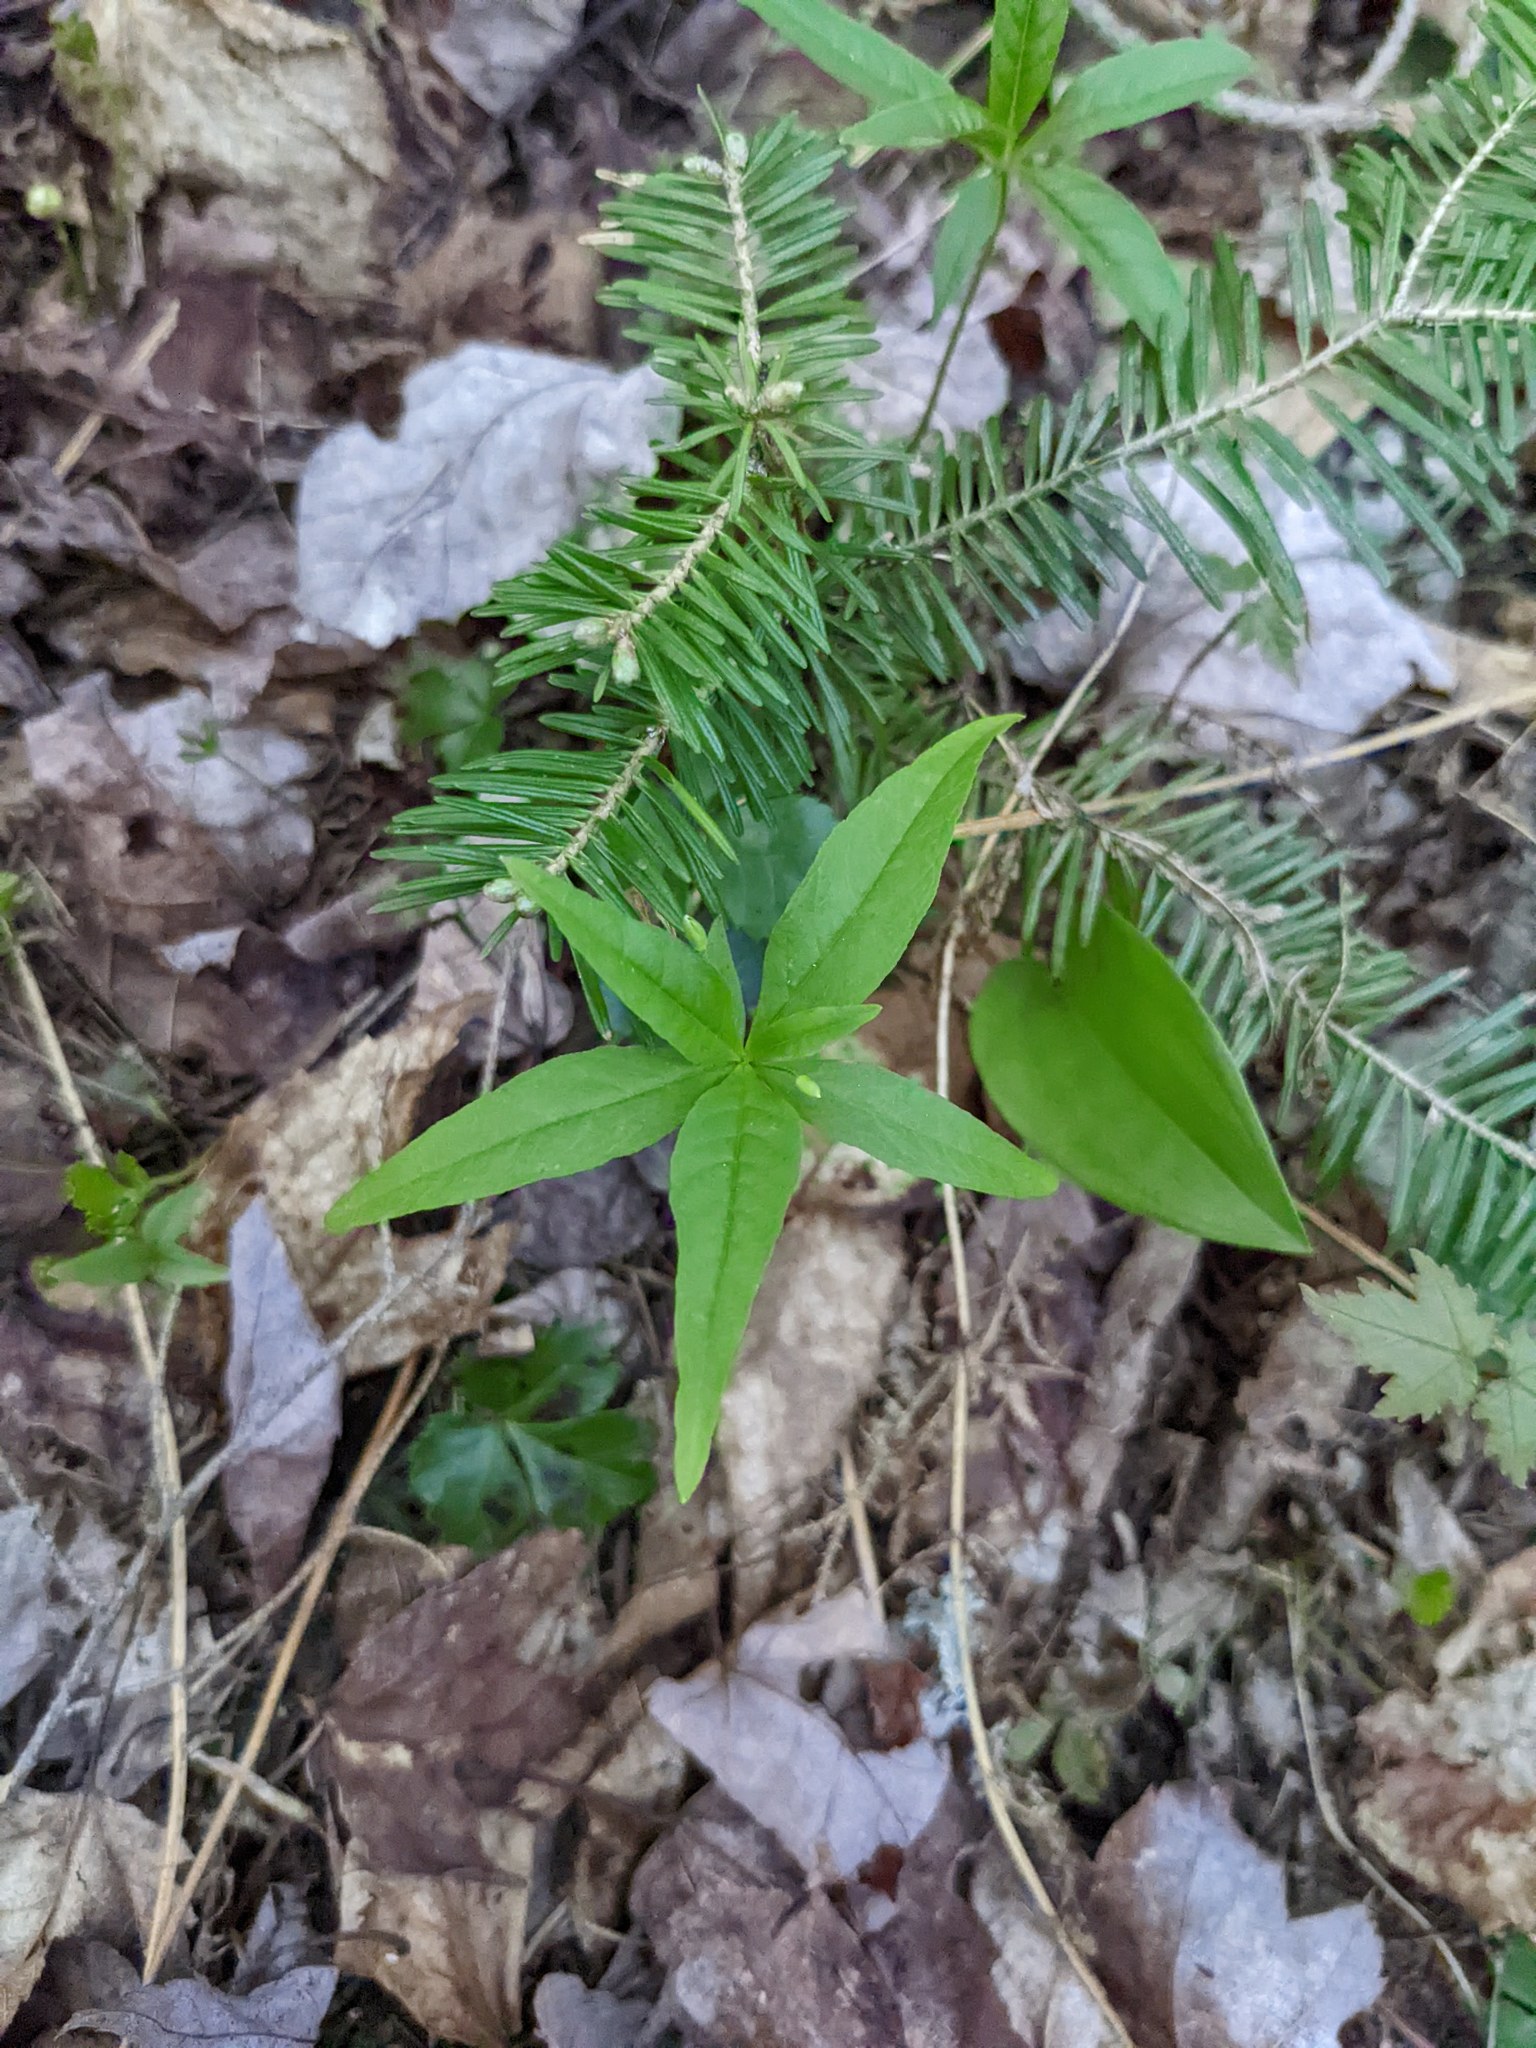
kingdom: Plantae
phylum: Tracheophyta
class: Magnoliopsida
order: Ericales
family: Primulaceae
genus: Lysimachia
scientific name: Lysimachia borealis
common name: American starflower
